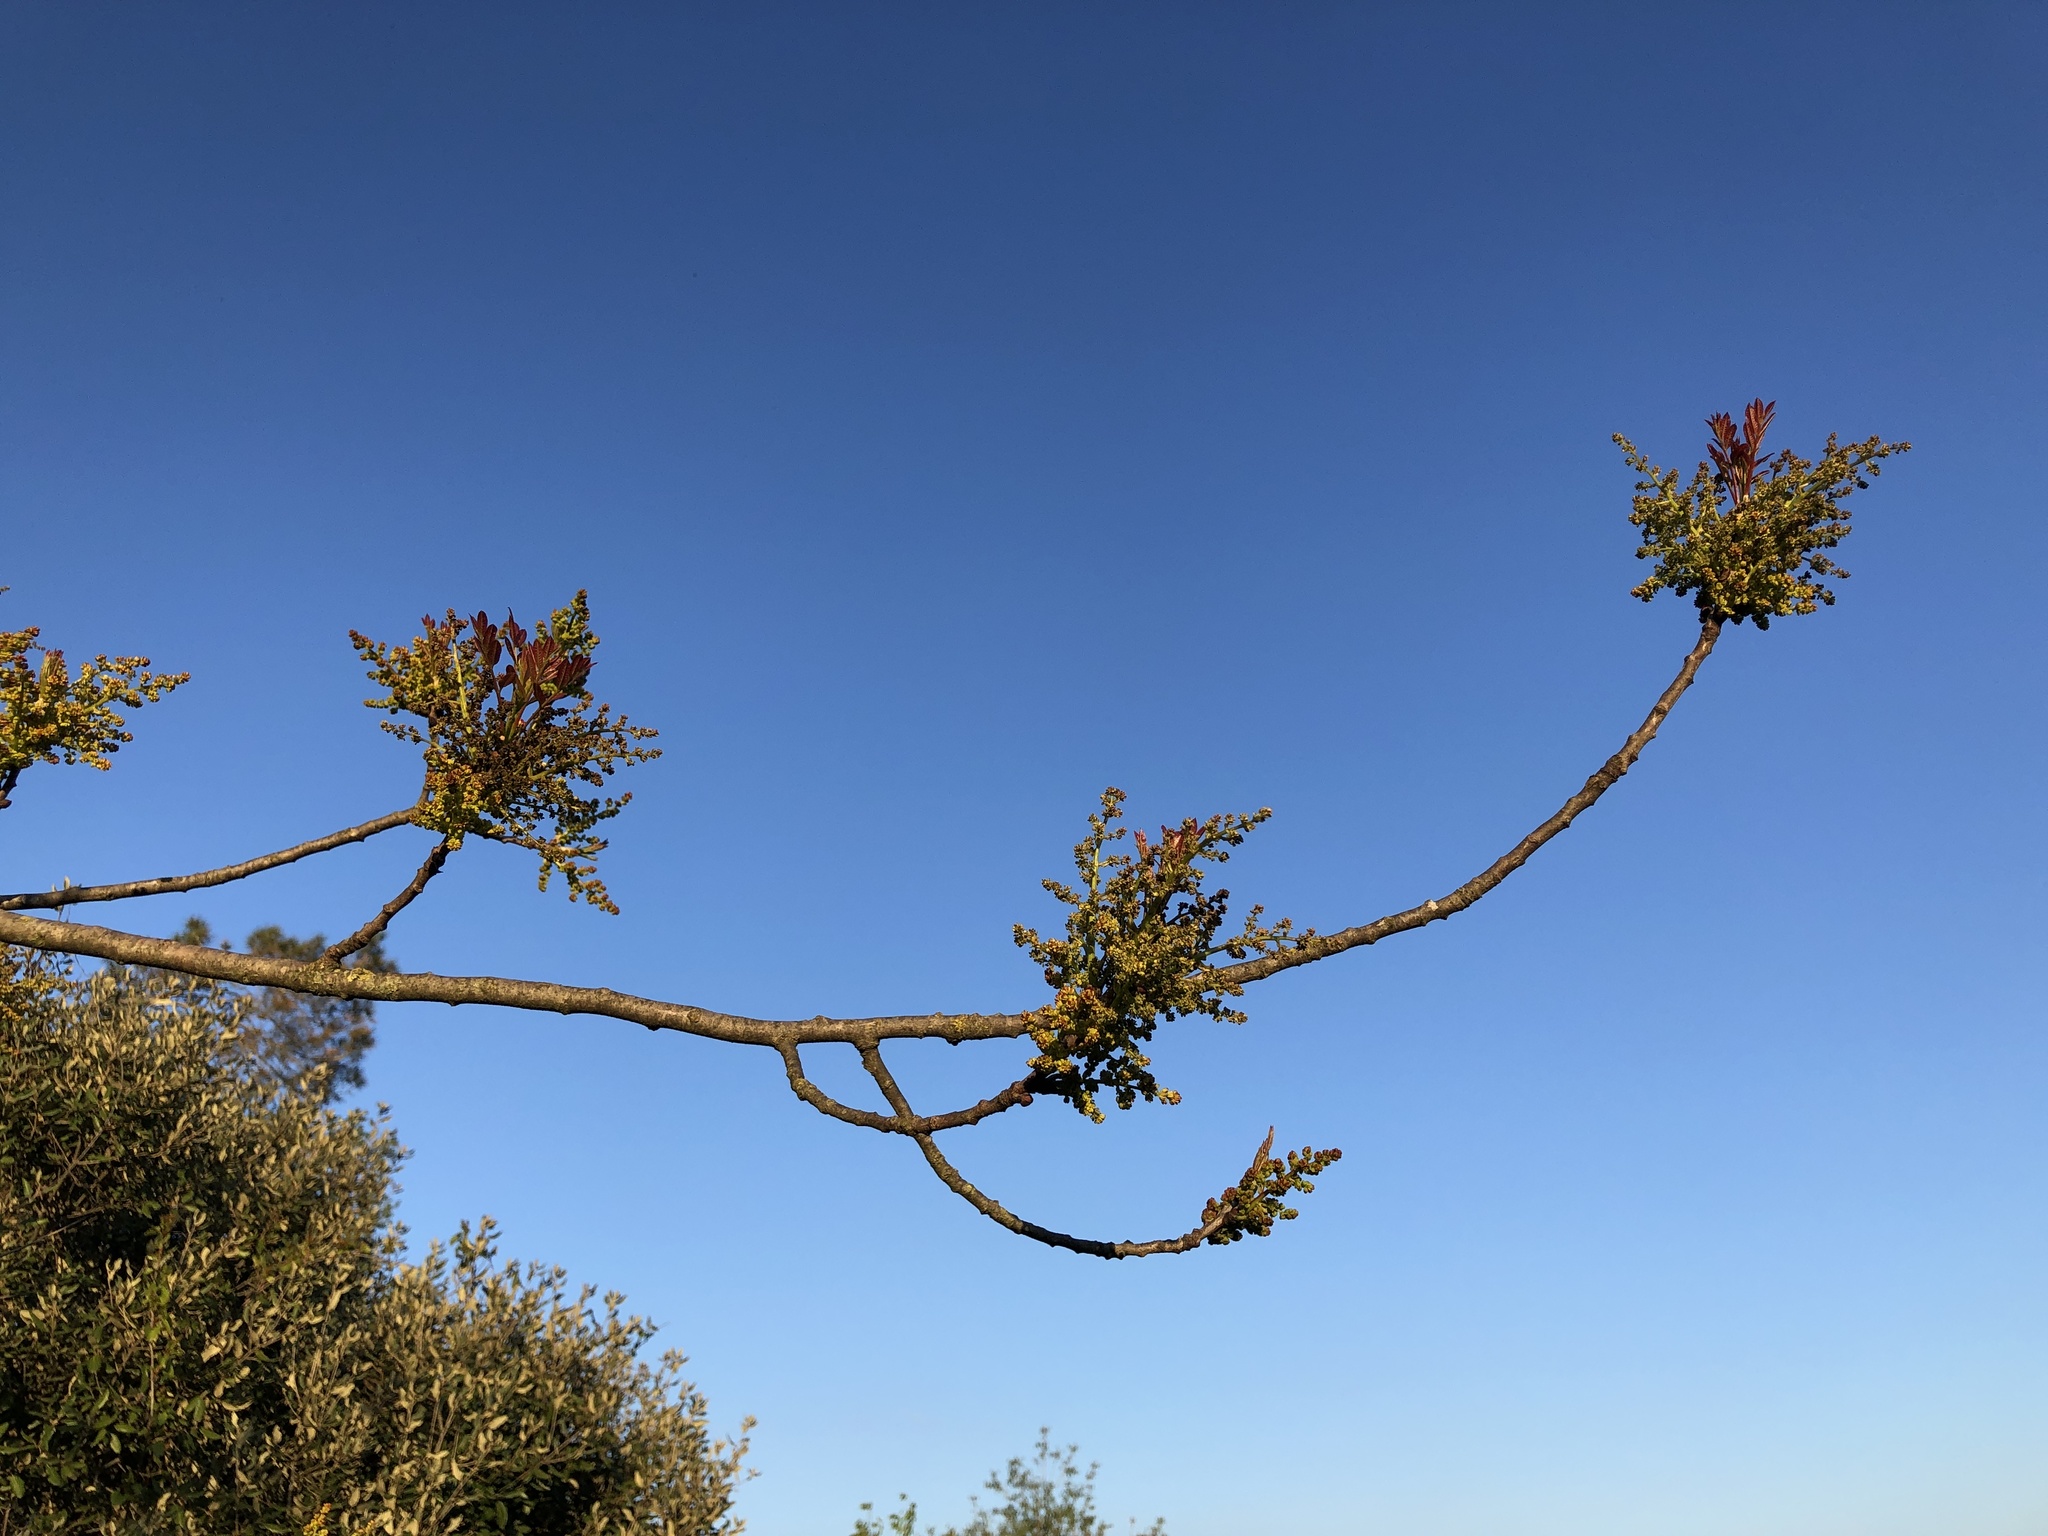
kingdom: Plantae
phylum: Tracheophyta
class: Magnoliopsida
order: Sapindales
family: Anacardiaceae
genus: Pistacia
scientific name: Pistacia terebinthus
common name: Terebinth
